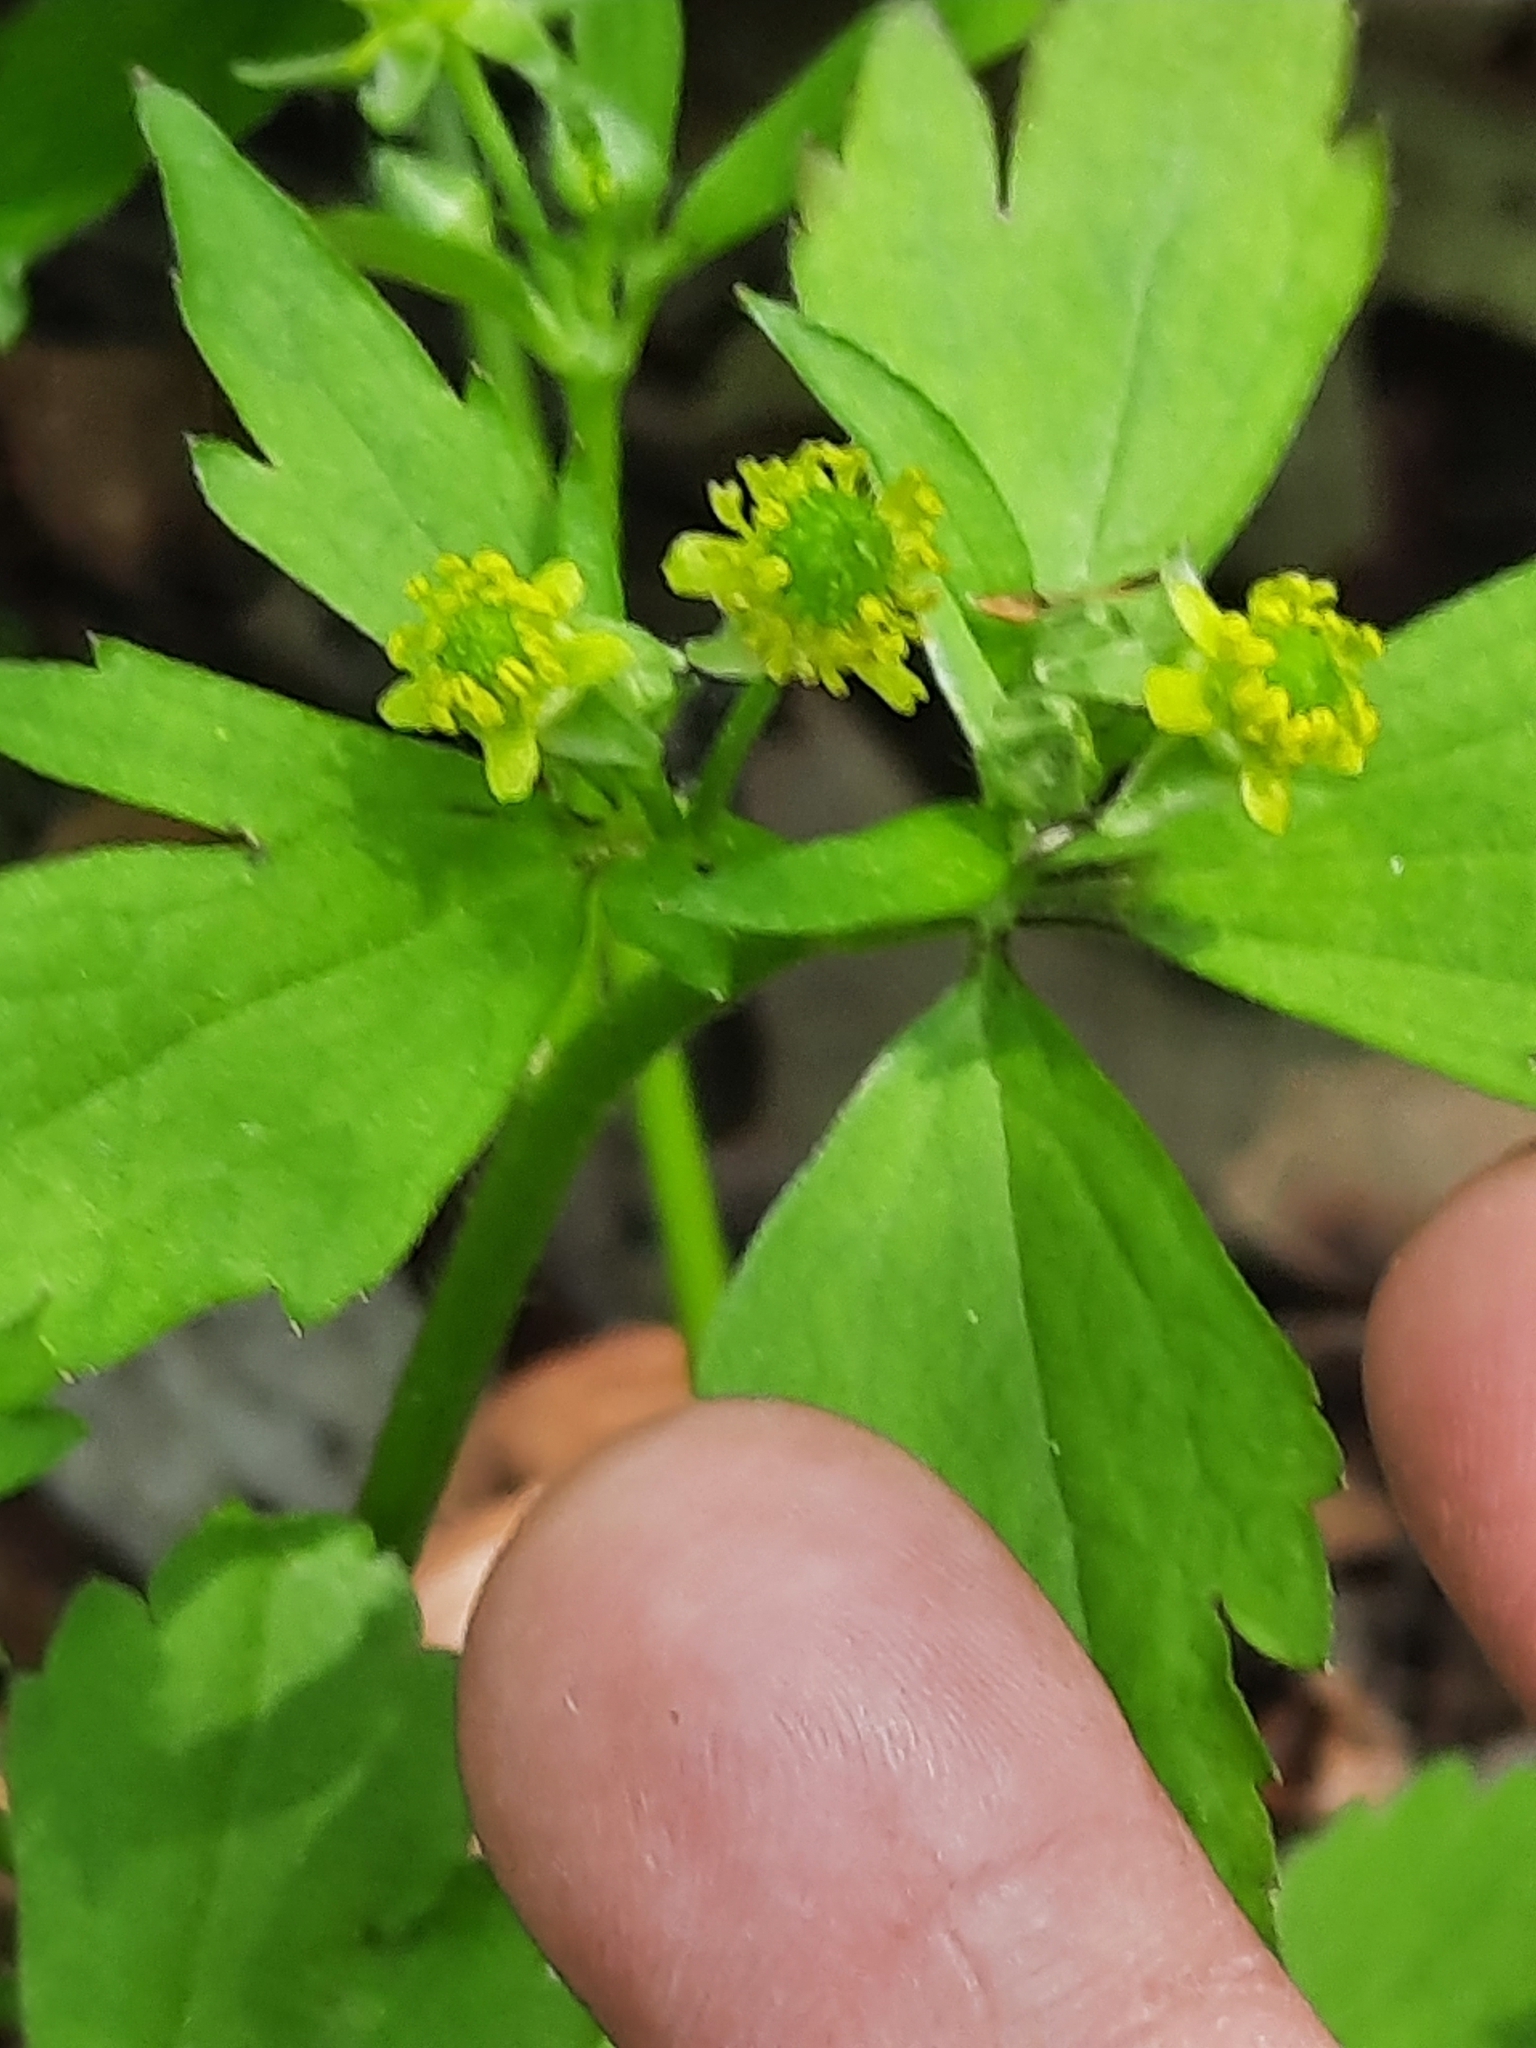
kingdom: Plantae
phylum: Tracheophyta
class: Magnoliopsida
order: Ranunculales
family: Ranunculaceae
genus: Ranunculus
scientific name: Ranunculus recurvatus
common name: Blisterwort
